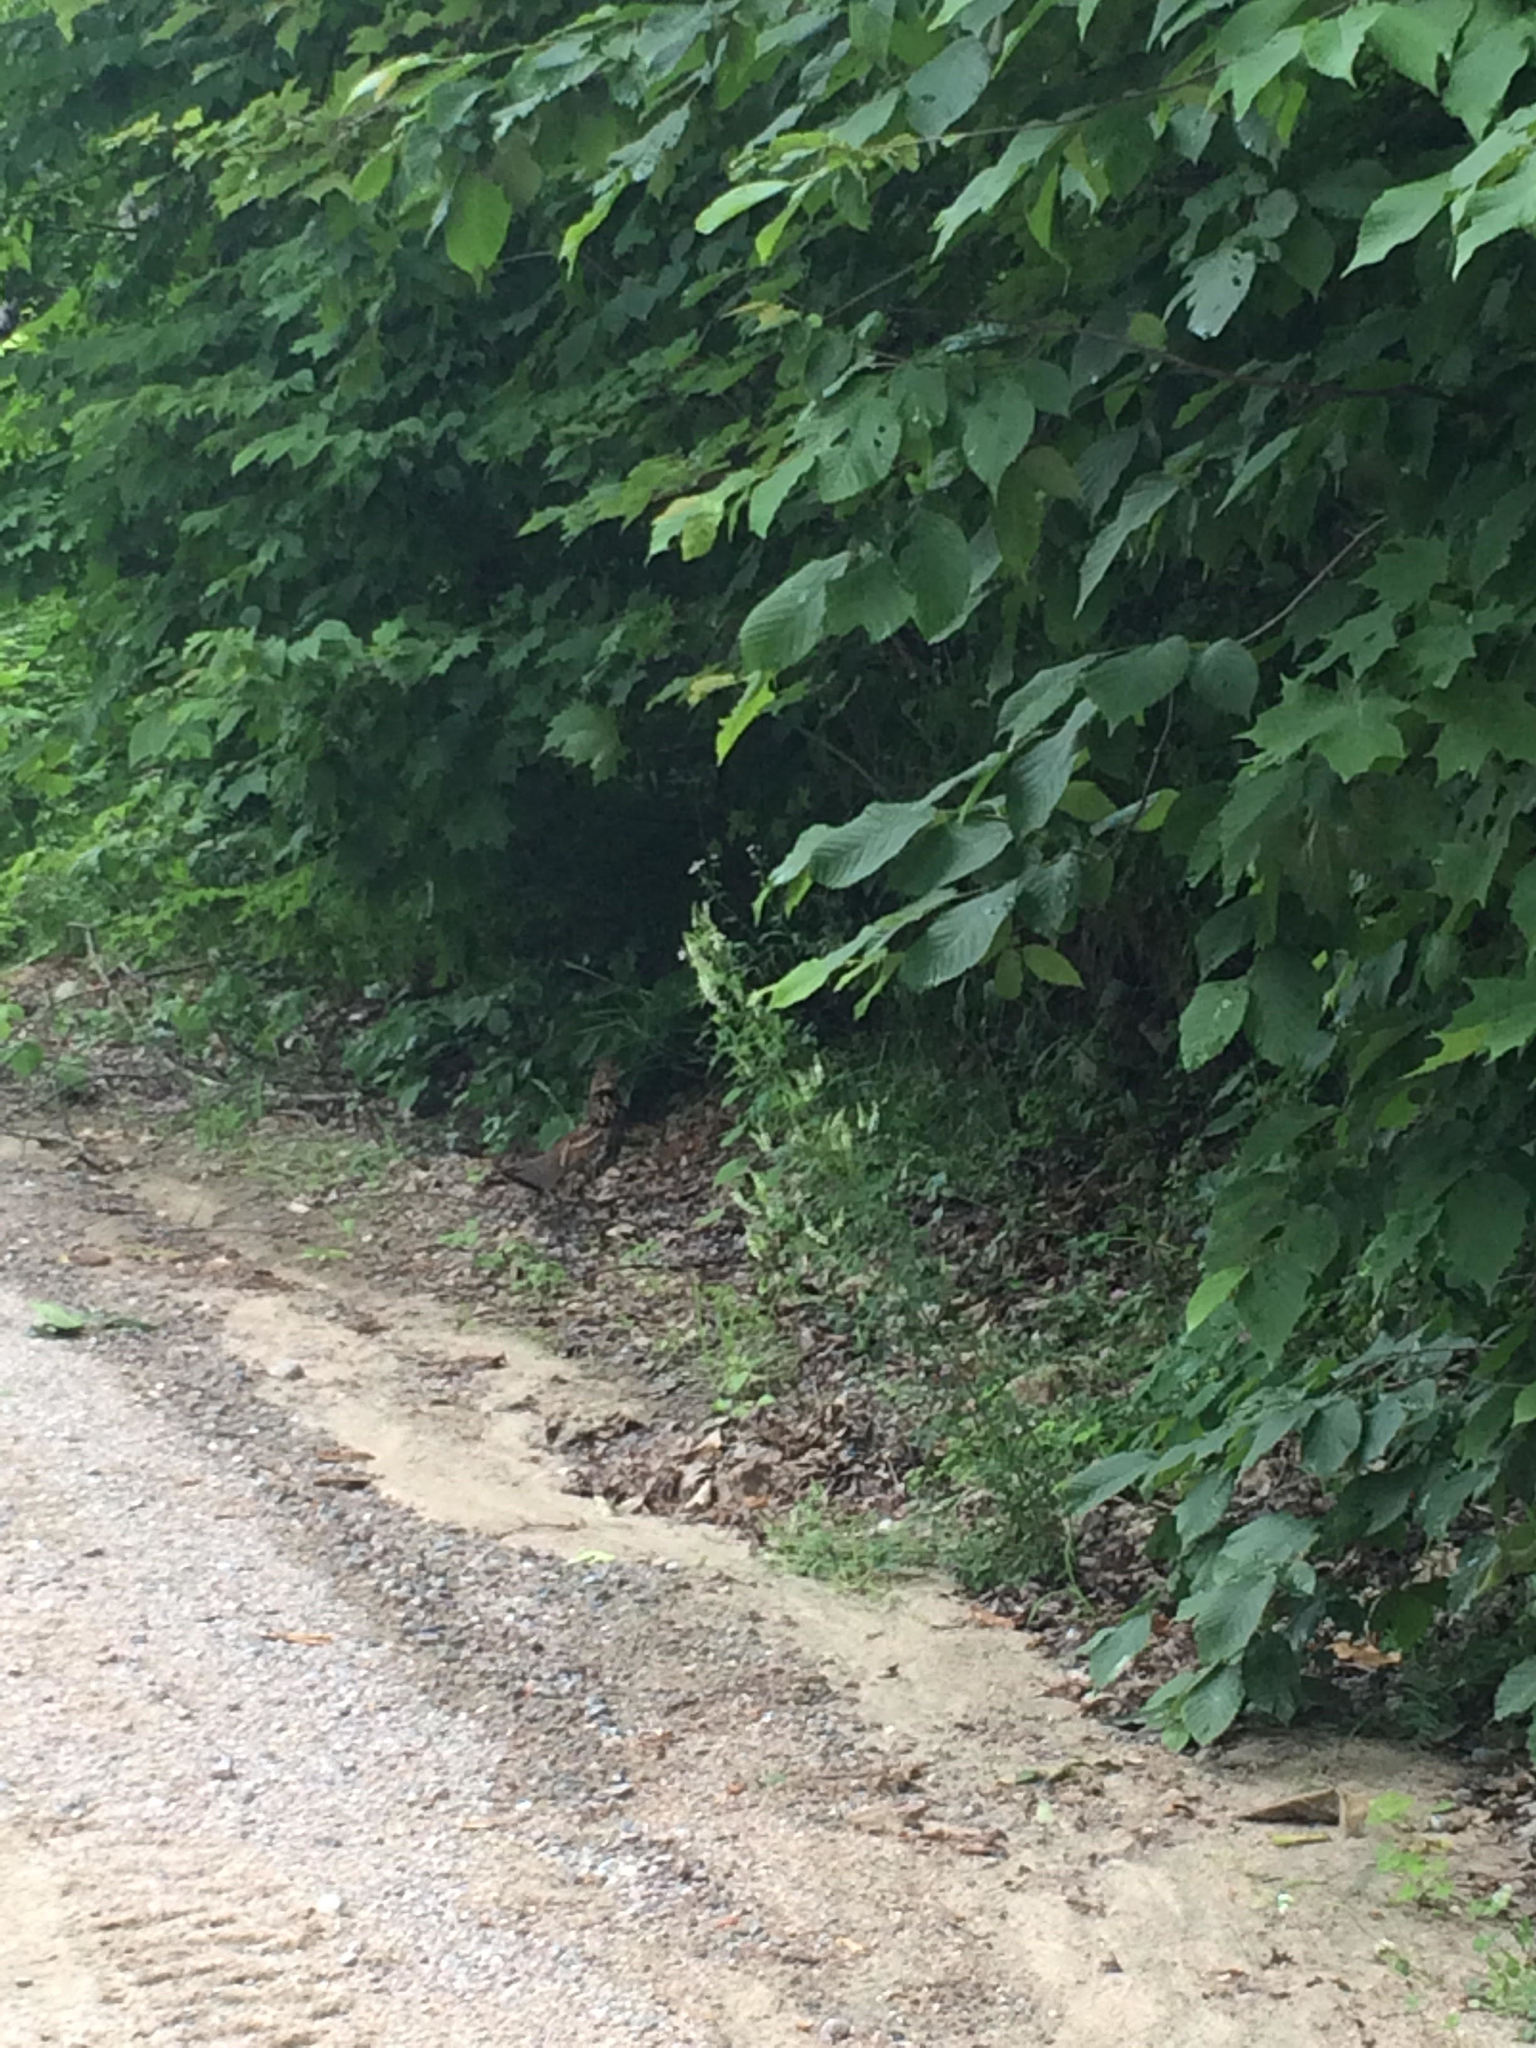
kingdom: Animalia
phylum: Chordata
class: Aves
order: Galliformes
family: Phasianidae
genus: Bonasa
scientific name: Bonasa umbellus
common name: Ruffed grouse
